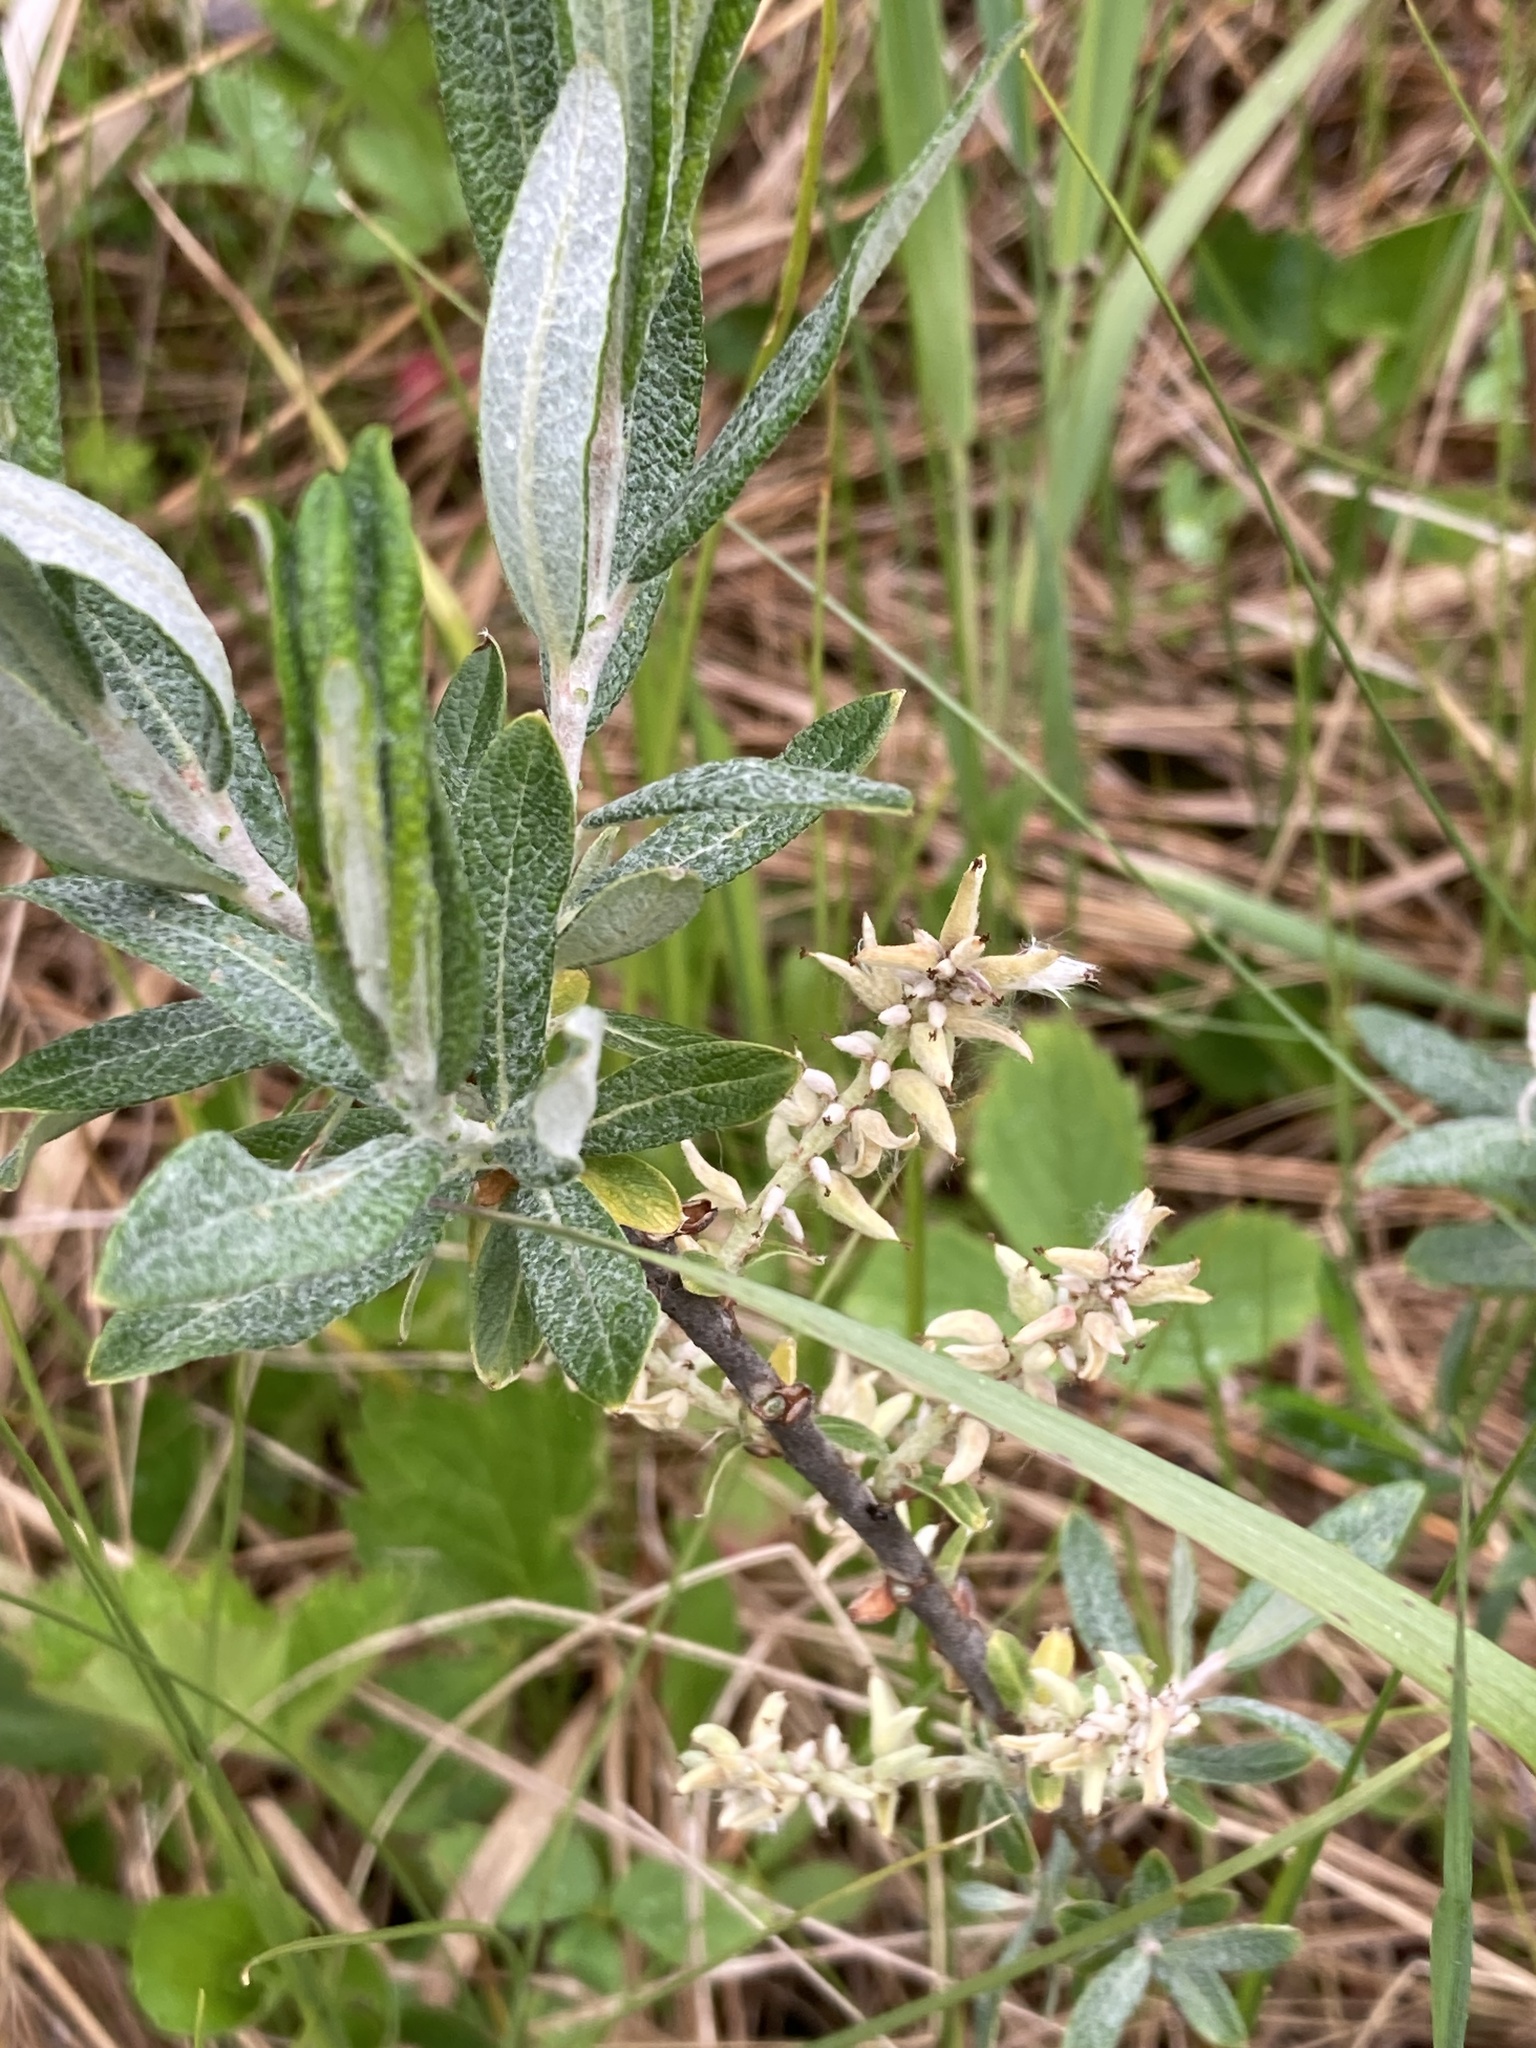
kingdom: Plantae
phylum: Tracheophyta
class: Magnoliopsida
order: Malpighiales
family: Salicaceae
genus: Salix
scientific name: Salix candida
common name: Hoary willow
